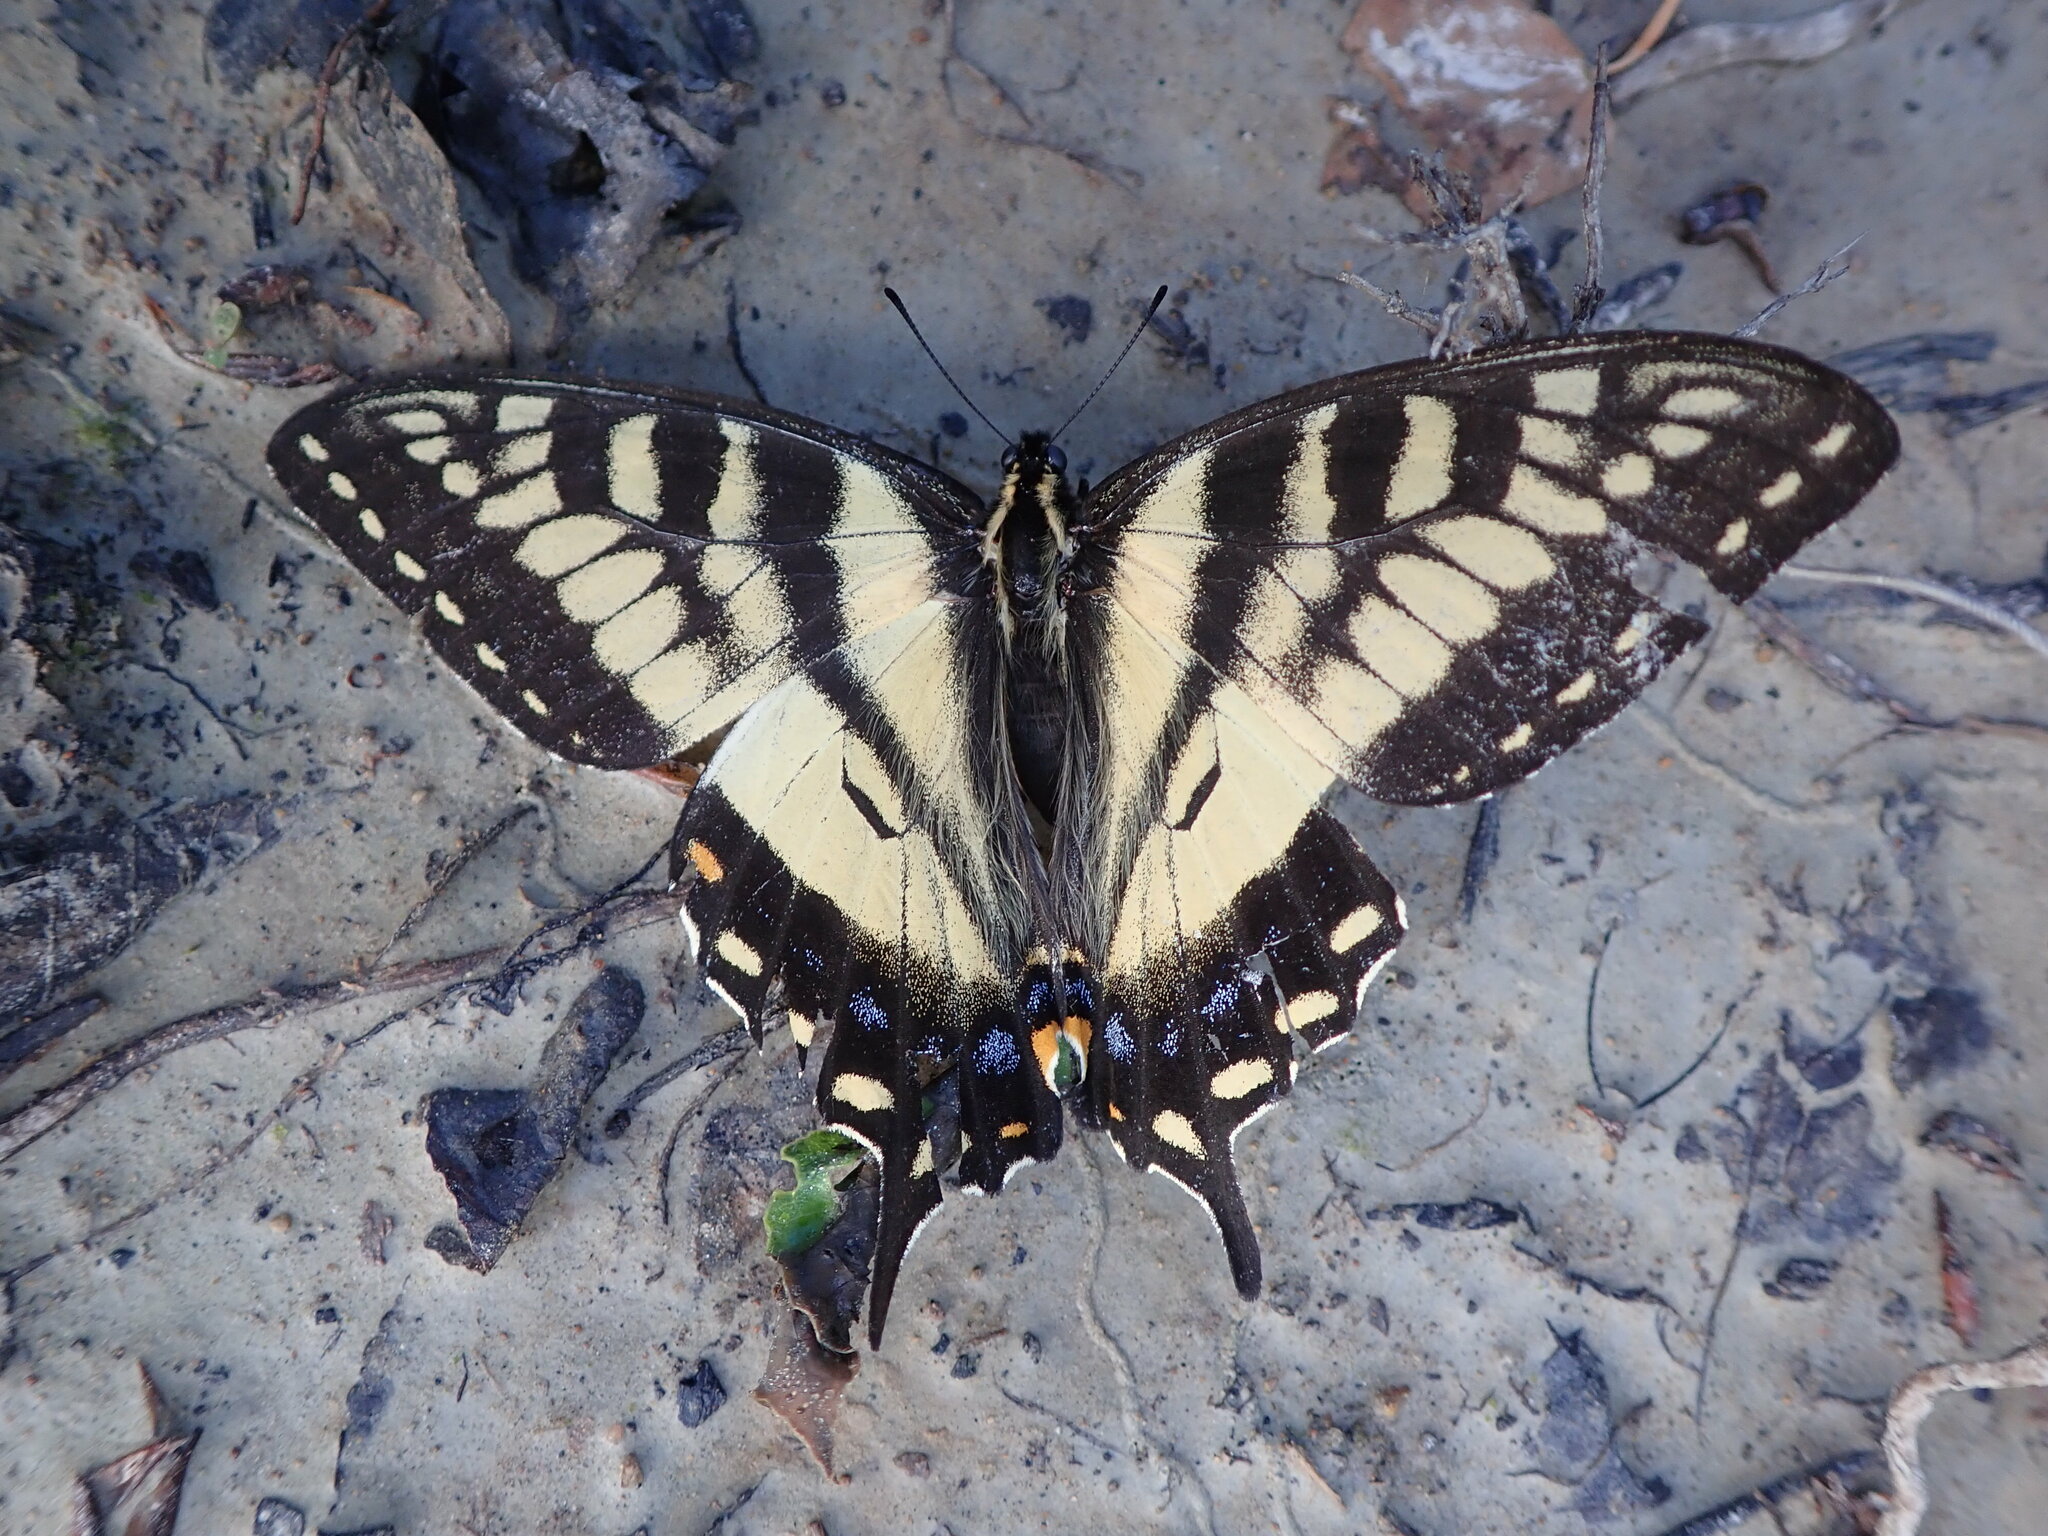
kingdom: Animalia
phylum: Arthropoda
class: Insecta
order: Lepidoptera
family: Papilionidae
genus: Papilio
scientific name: Papilio canadensis
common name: Canadian tiger swallowtail
